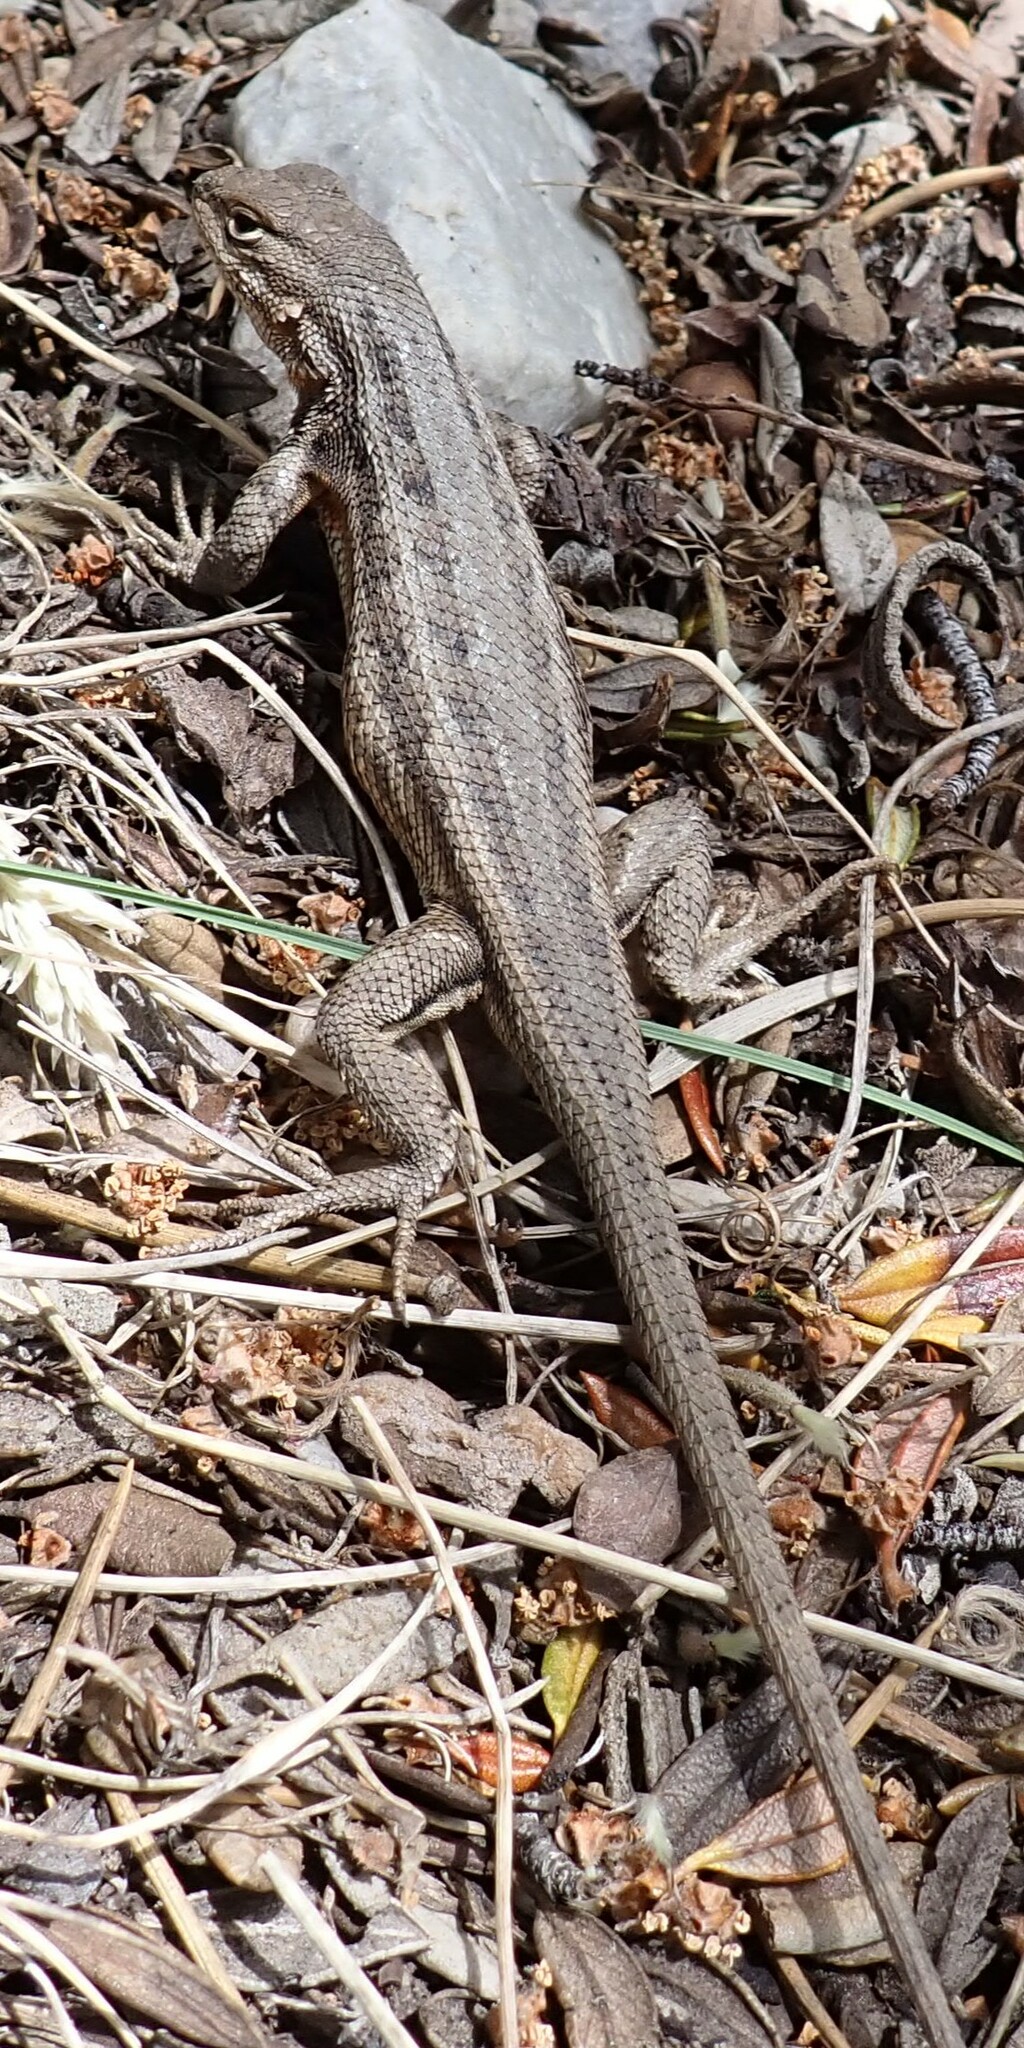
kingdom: Animalia
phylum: Chordata
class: Squamata
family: Phrynosomatidae
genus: Sceloporus
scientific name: Sceloporus graciosus
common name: Sagebrush lizard
